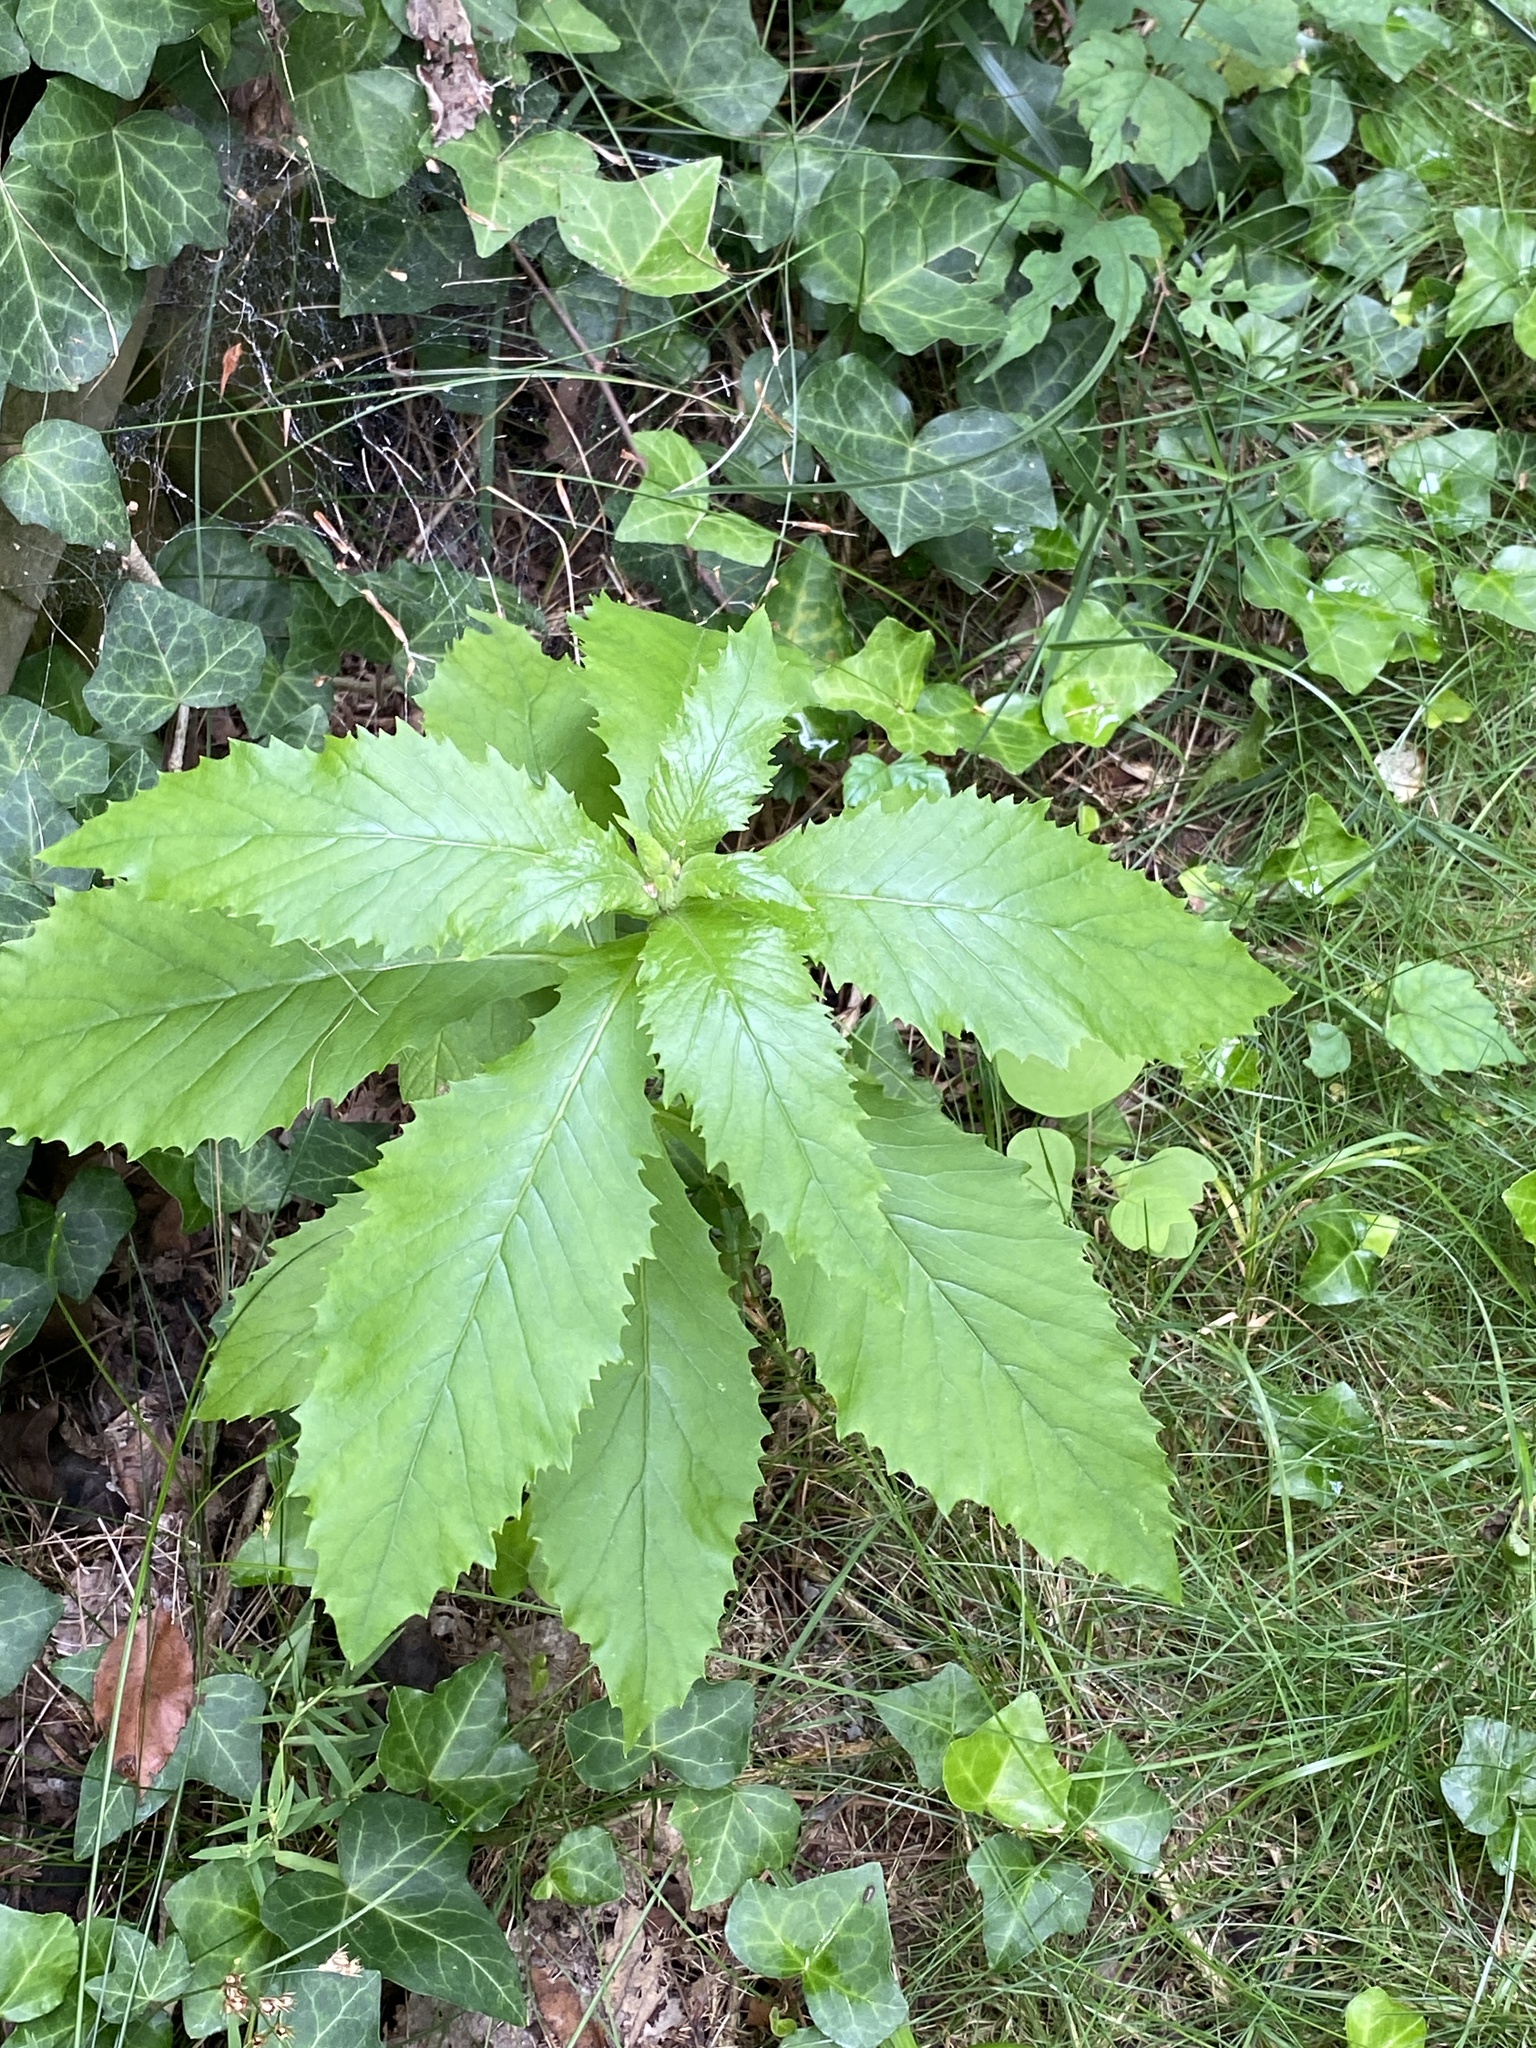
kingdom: Plantae
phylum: Tracheophyta
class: Magnoliopsida
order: Asterales
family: Asteraceae
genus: Erechtites
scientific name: Erechtites hieraciifolius
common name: American burnweed
